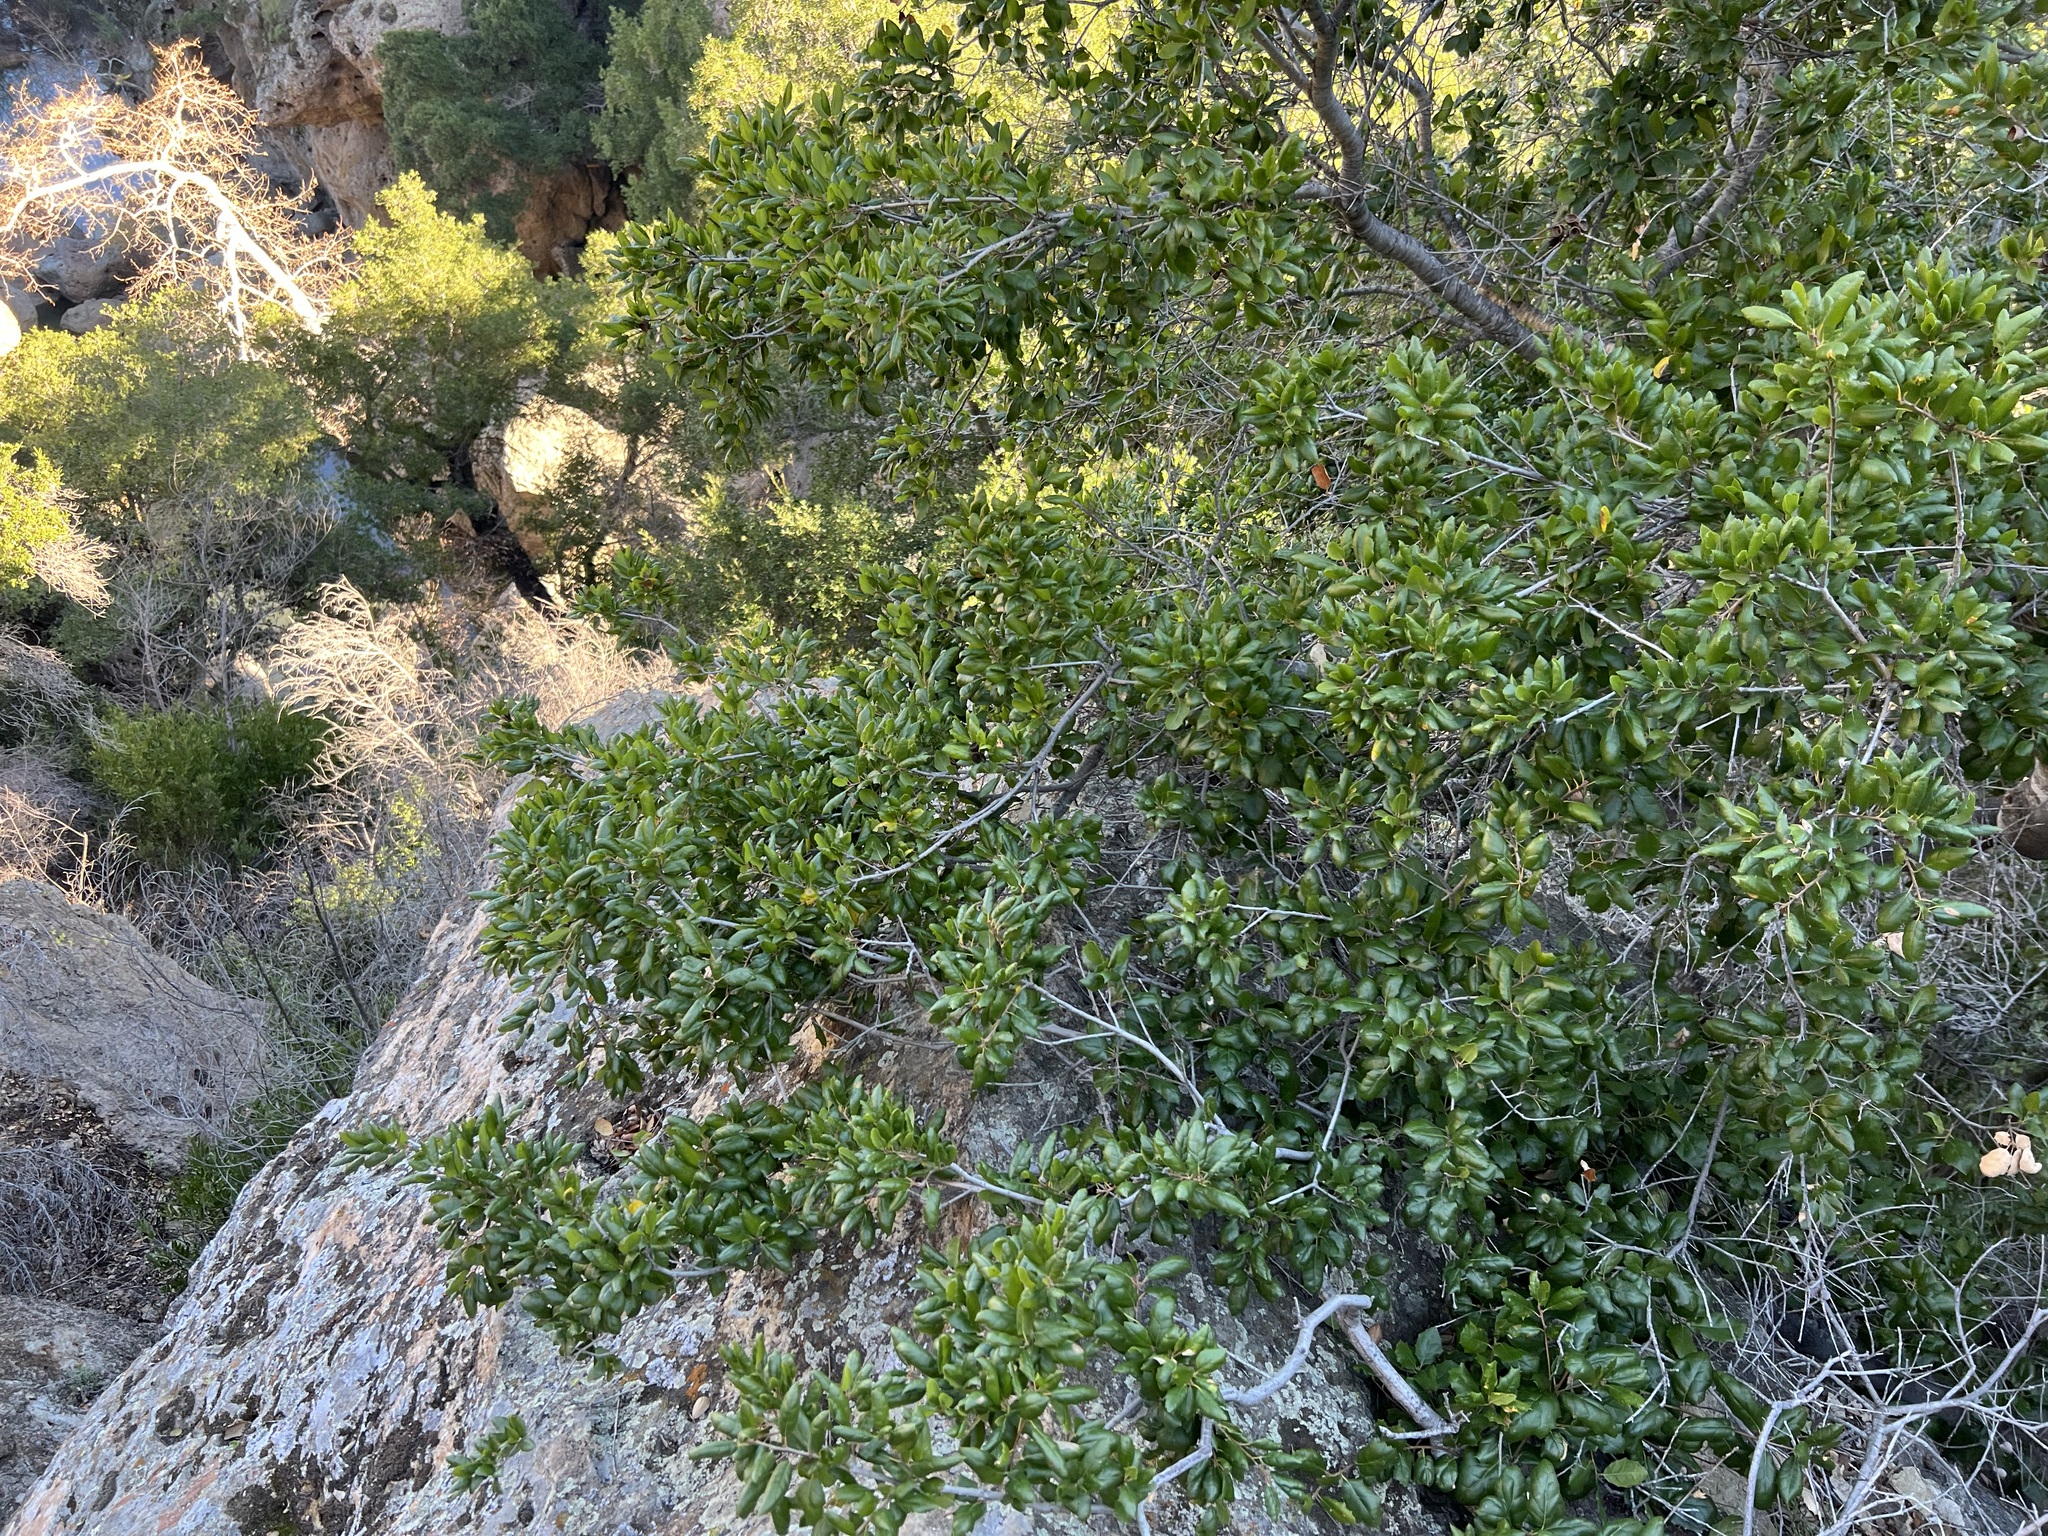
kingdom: Plantae
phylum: Tracheophyta
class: Magnoliopsida
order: Fagales
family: Fagaceae
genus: Quercus
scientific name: Quercus agrifolia
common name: California live oak
